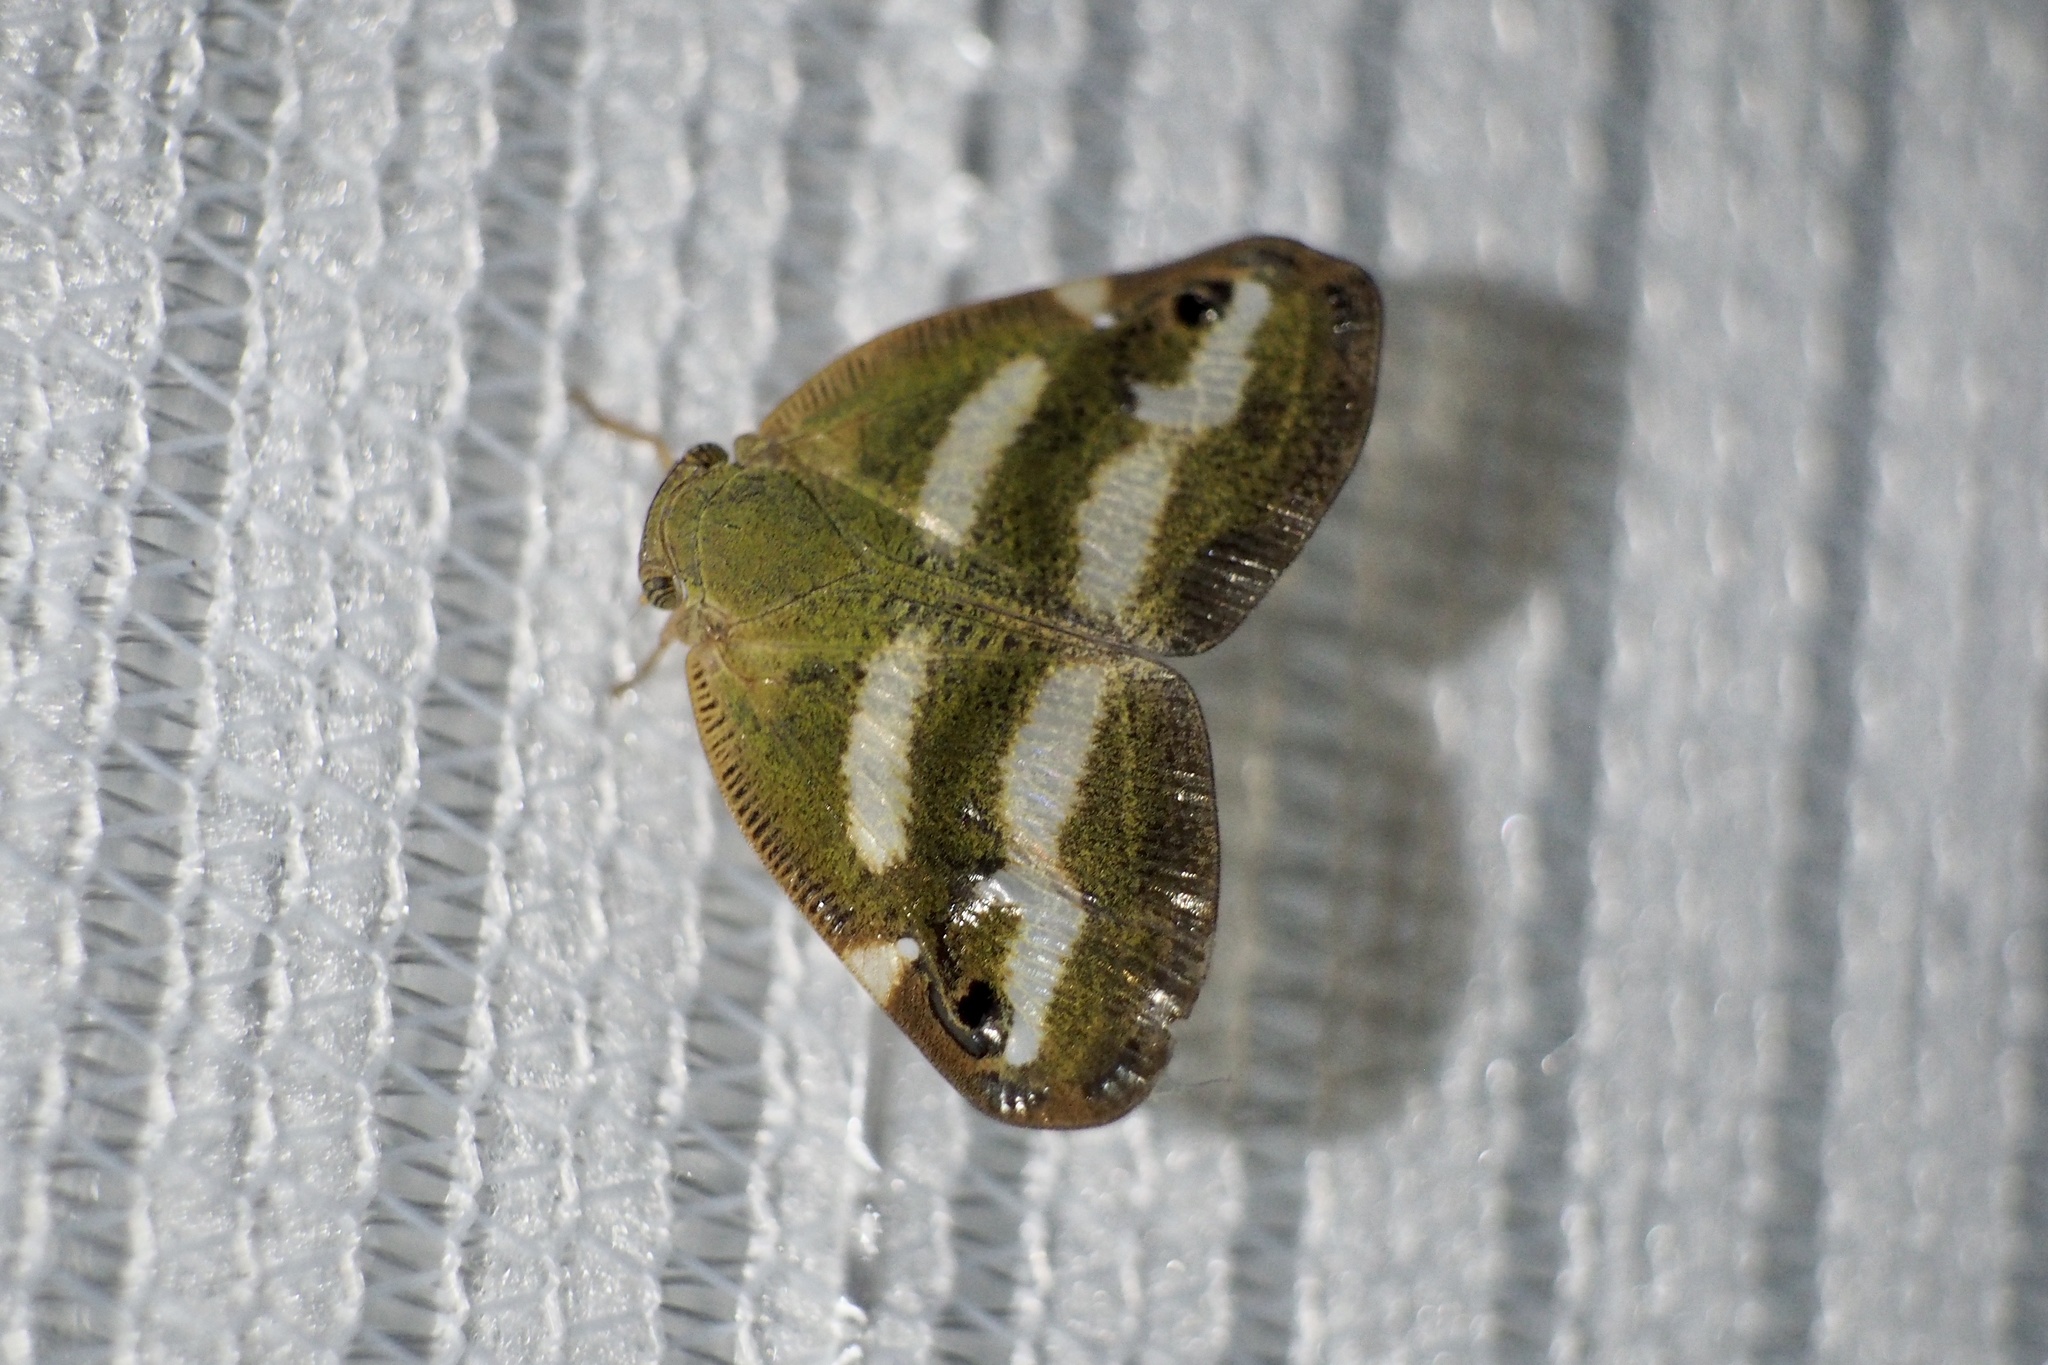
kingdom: Animalia
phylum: Arthropoda
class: Insecta
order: Hemiptera
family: Ricaniidae
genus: Orosanga
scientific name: Orosanga japonica
